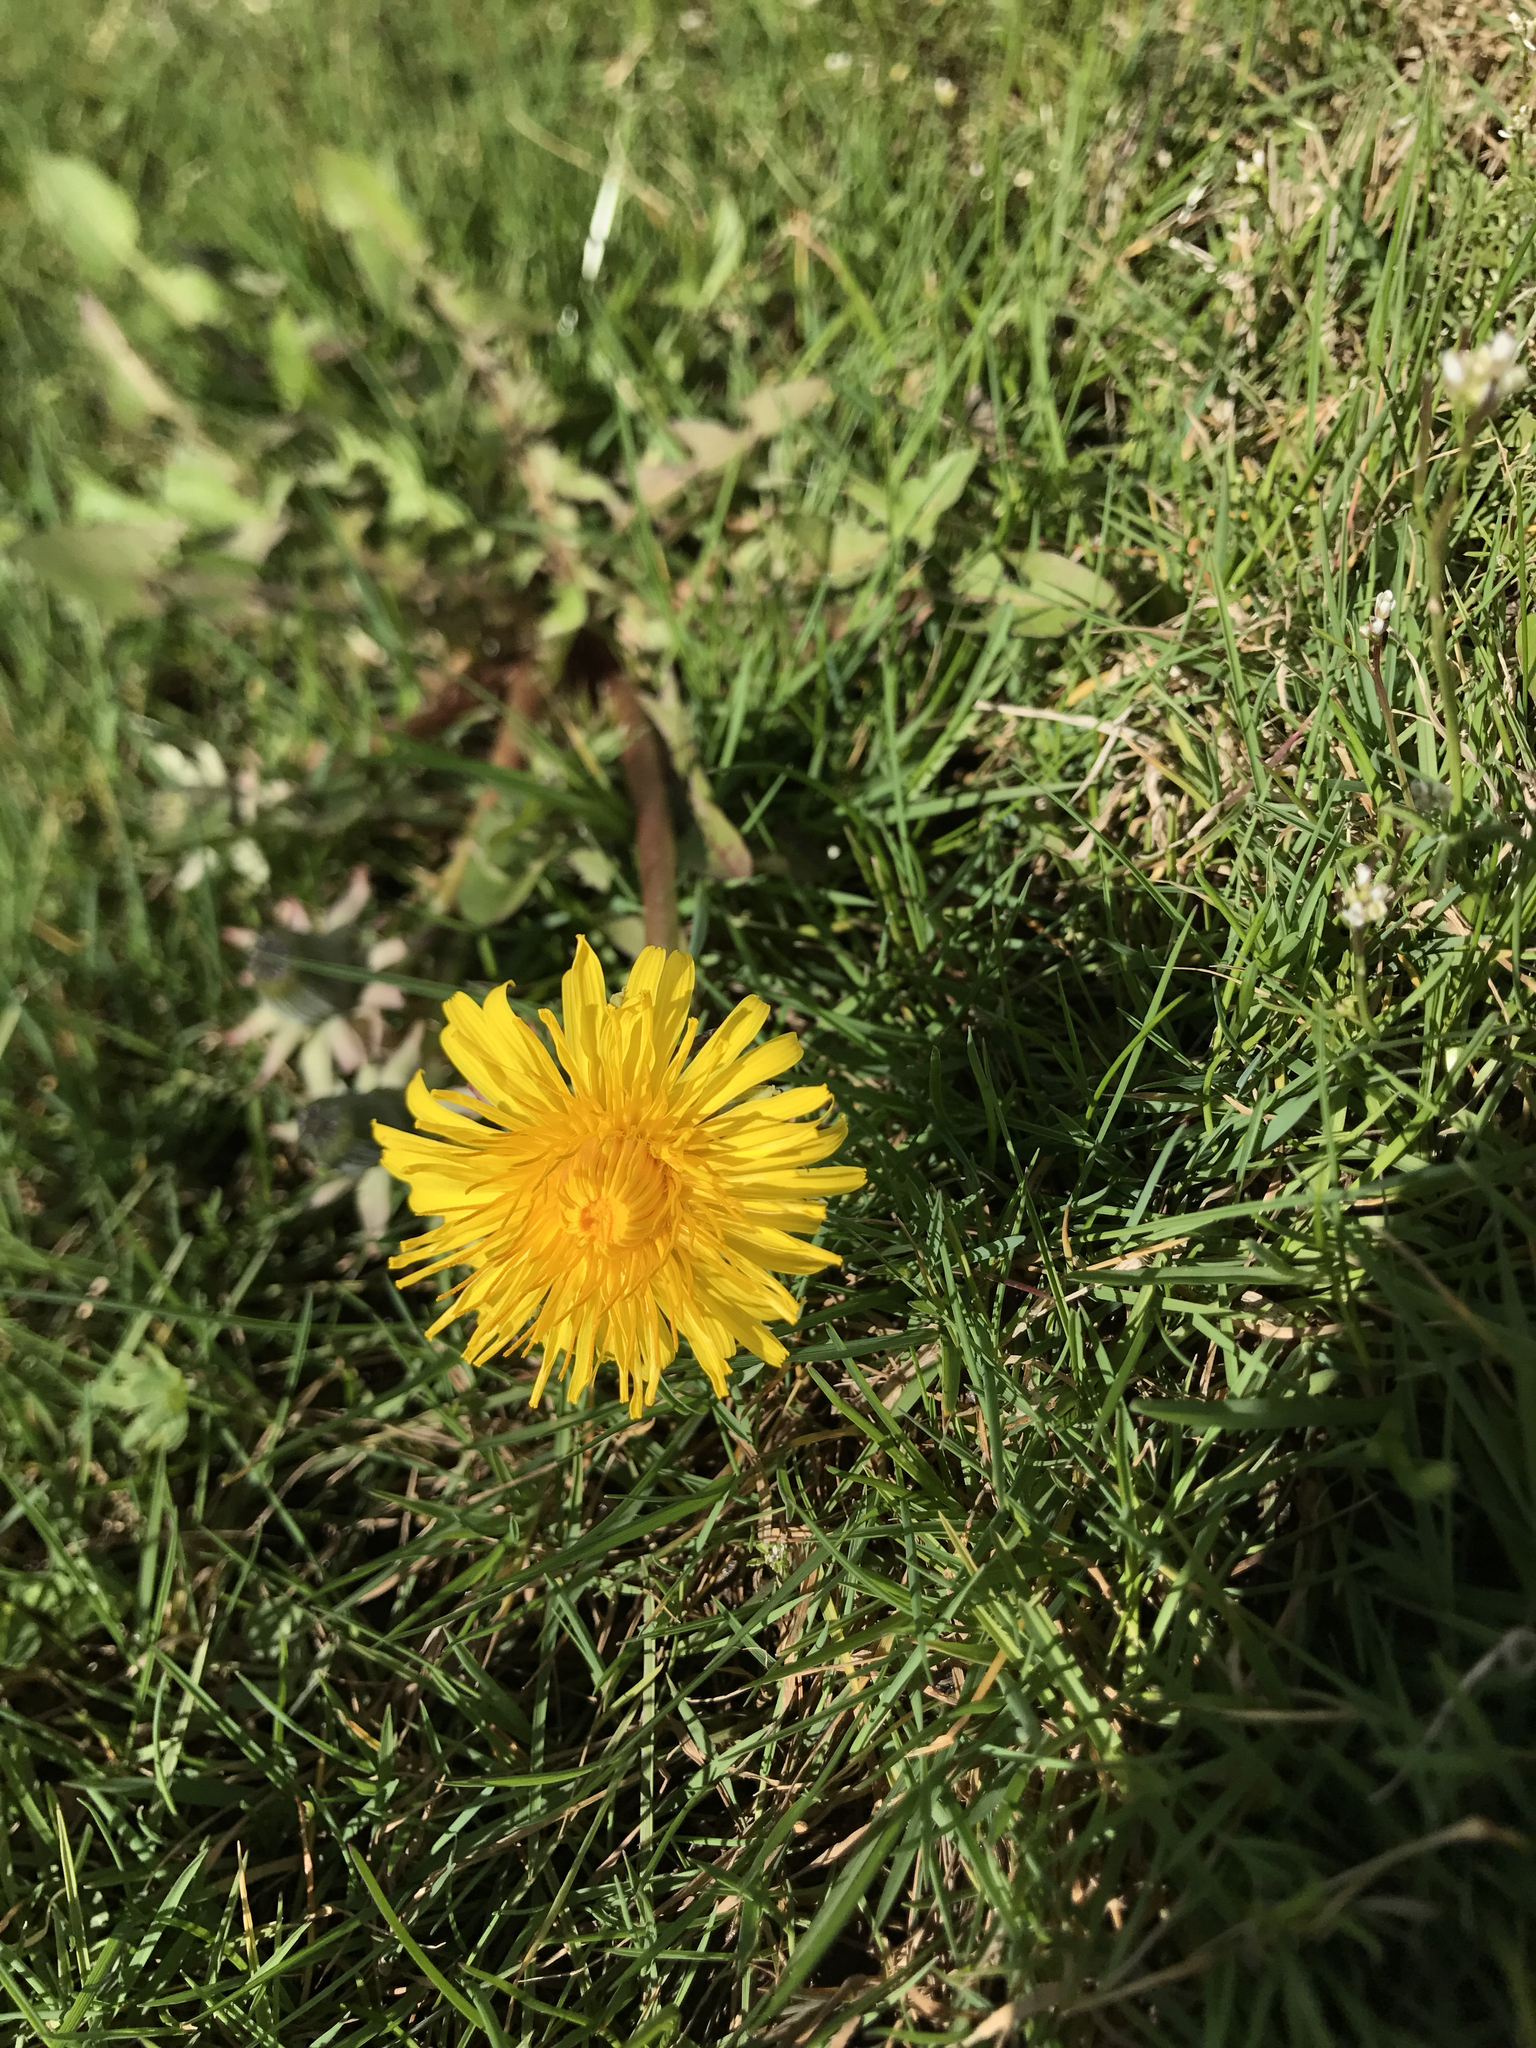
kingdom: Plantae
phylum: Tracheophyta
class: Magnoliopsida
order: Asterales
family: Asteraceae
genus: Taraxacum
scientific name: Taraxacum officinale
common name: Common dandelion
